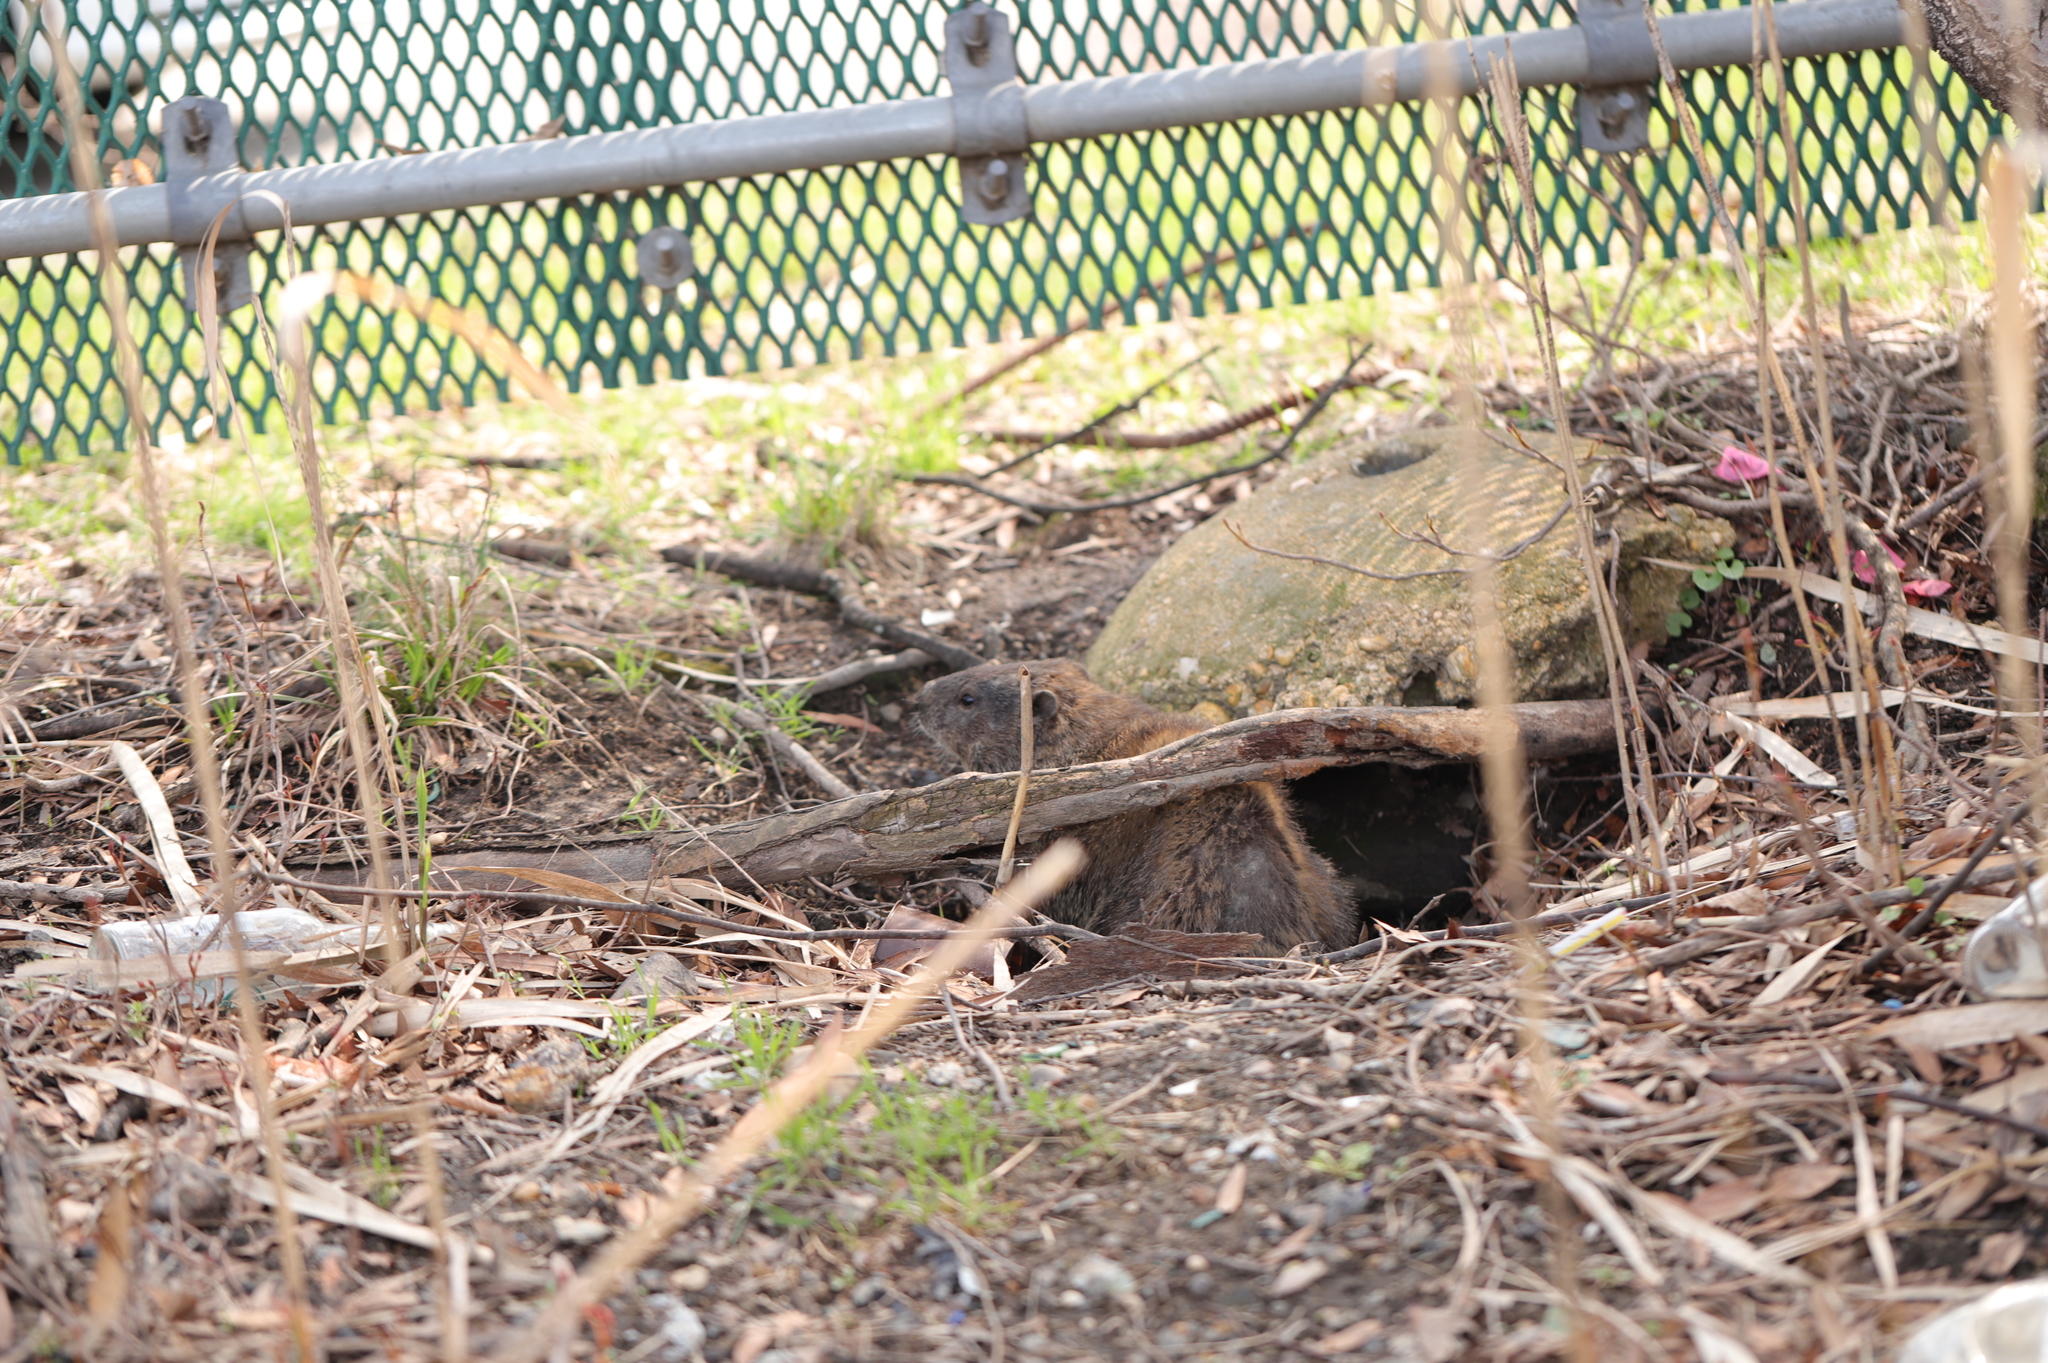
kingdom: Animalia
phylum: Chordata
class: Mammalia
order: Rodentia
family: Sciuridae
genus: Marmota
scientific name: Marmota monax
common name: Groundhog
